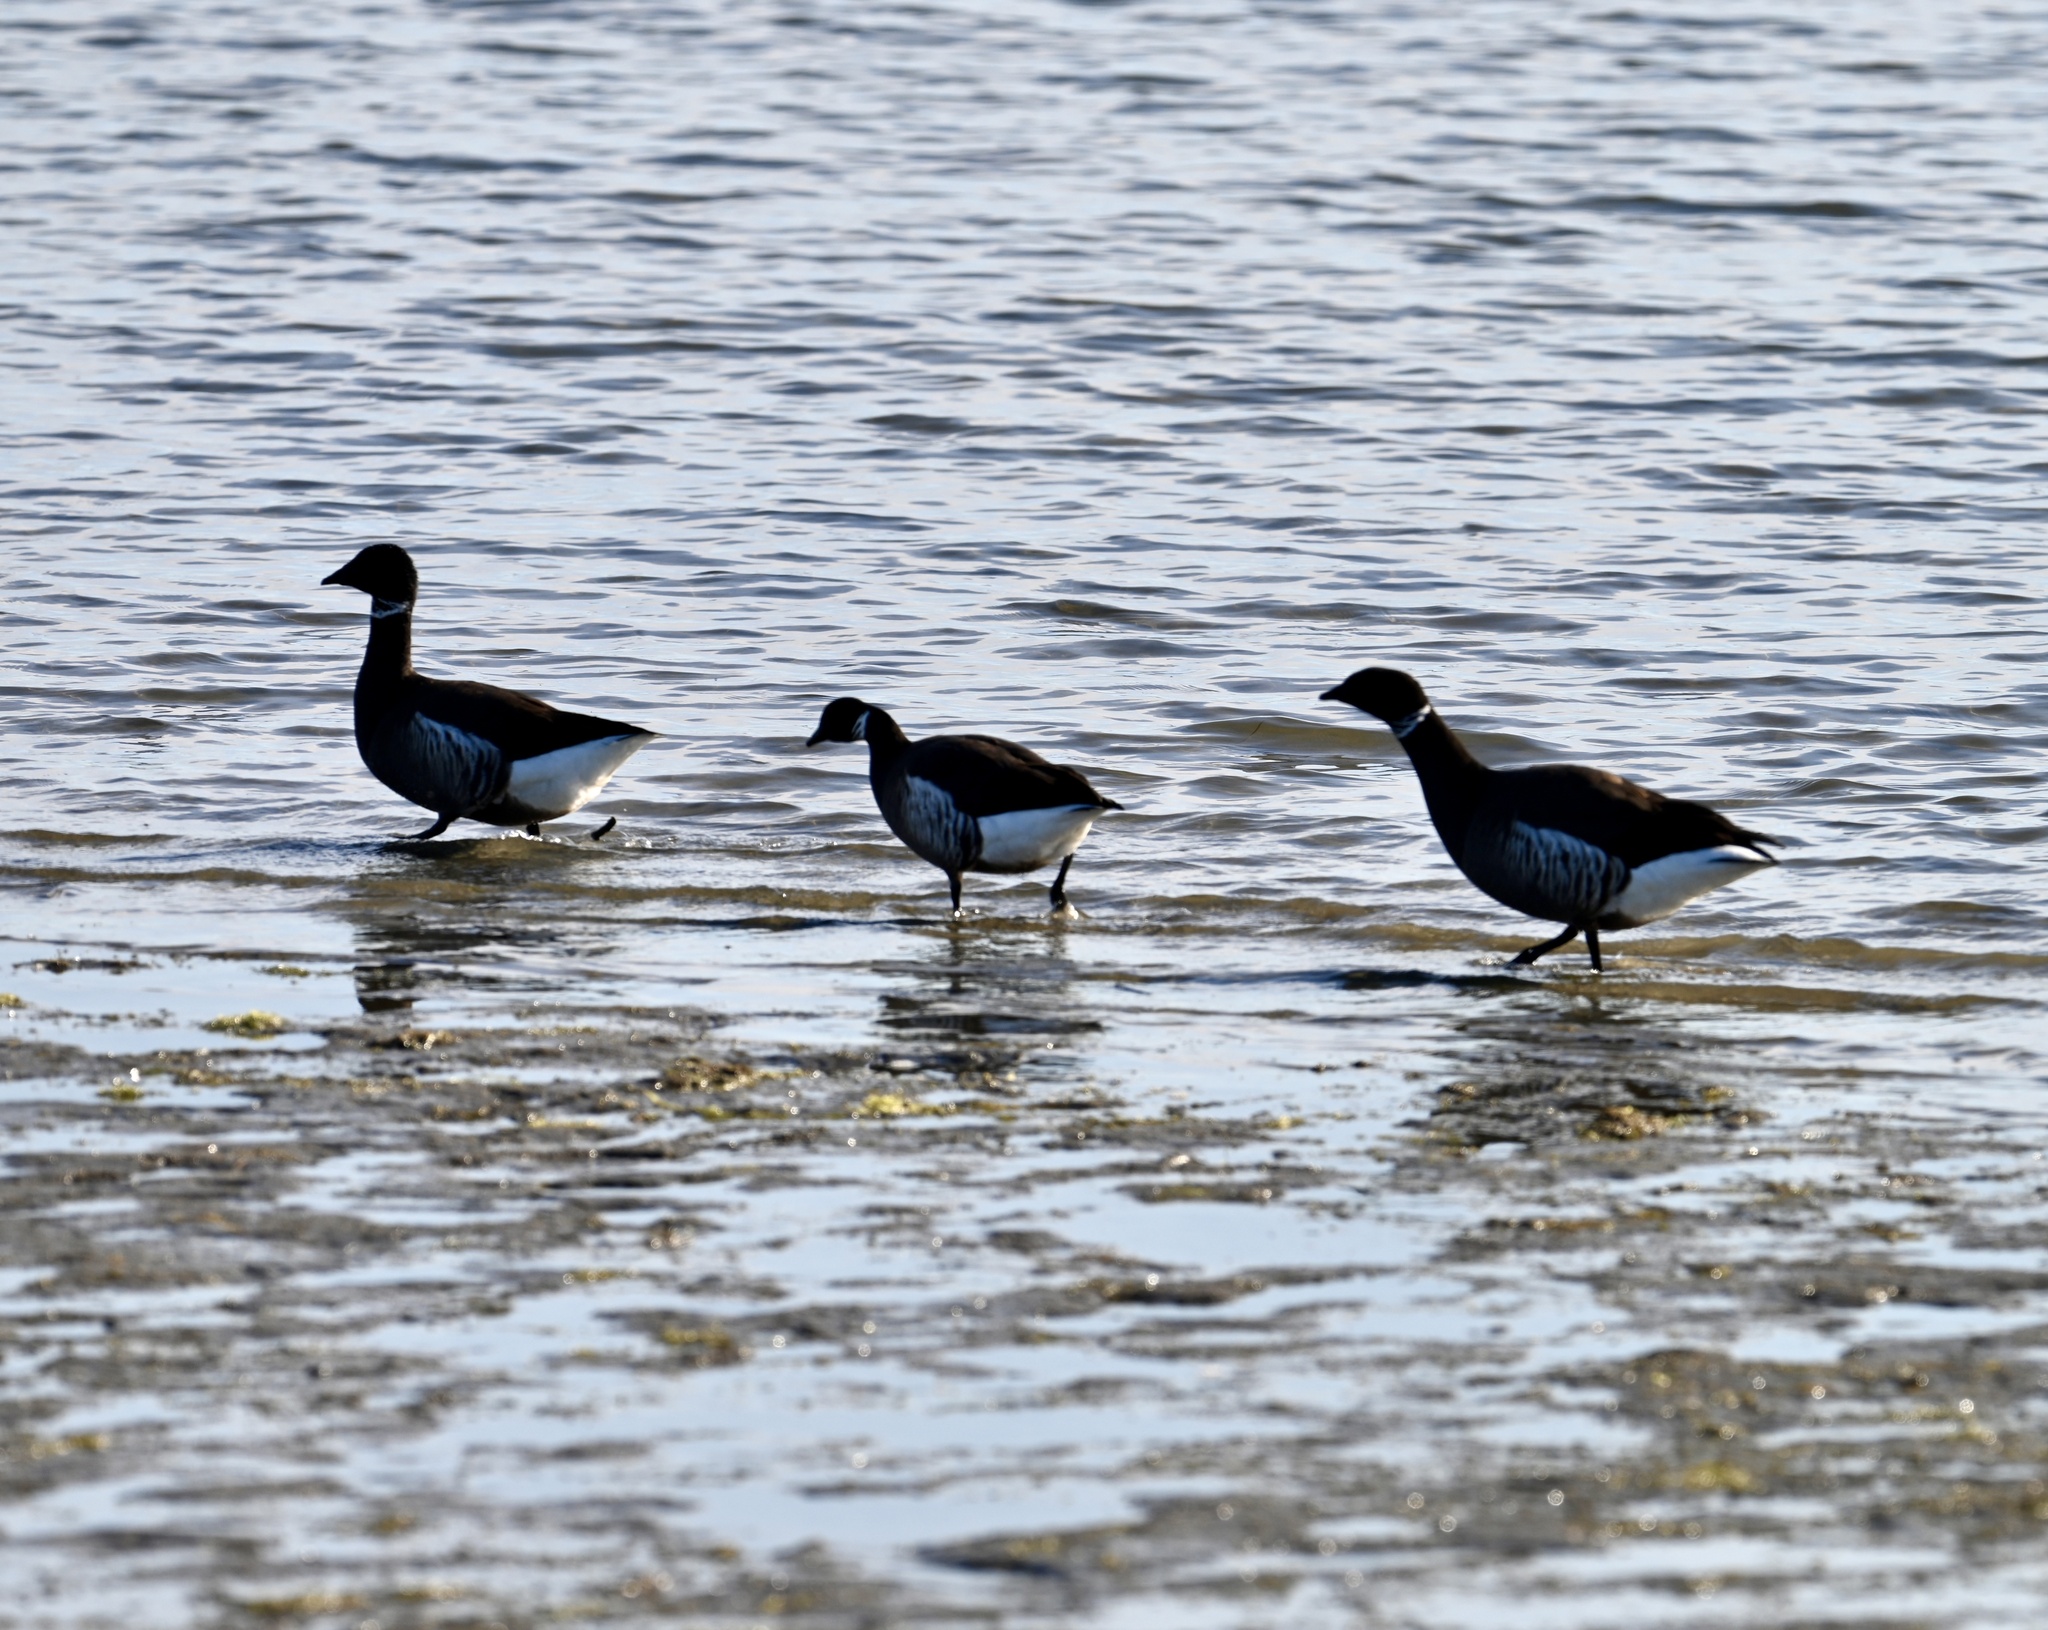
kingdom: Animalia
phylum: Chordata
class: Aves
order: Anseriformes
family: Anatidae
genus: Branta
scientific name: Branta bernicla
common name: Brant goose
